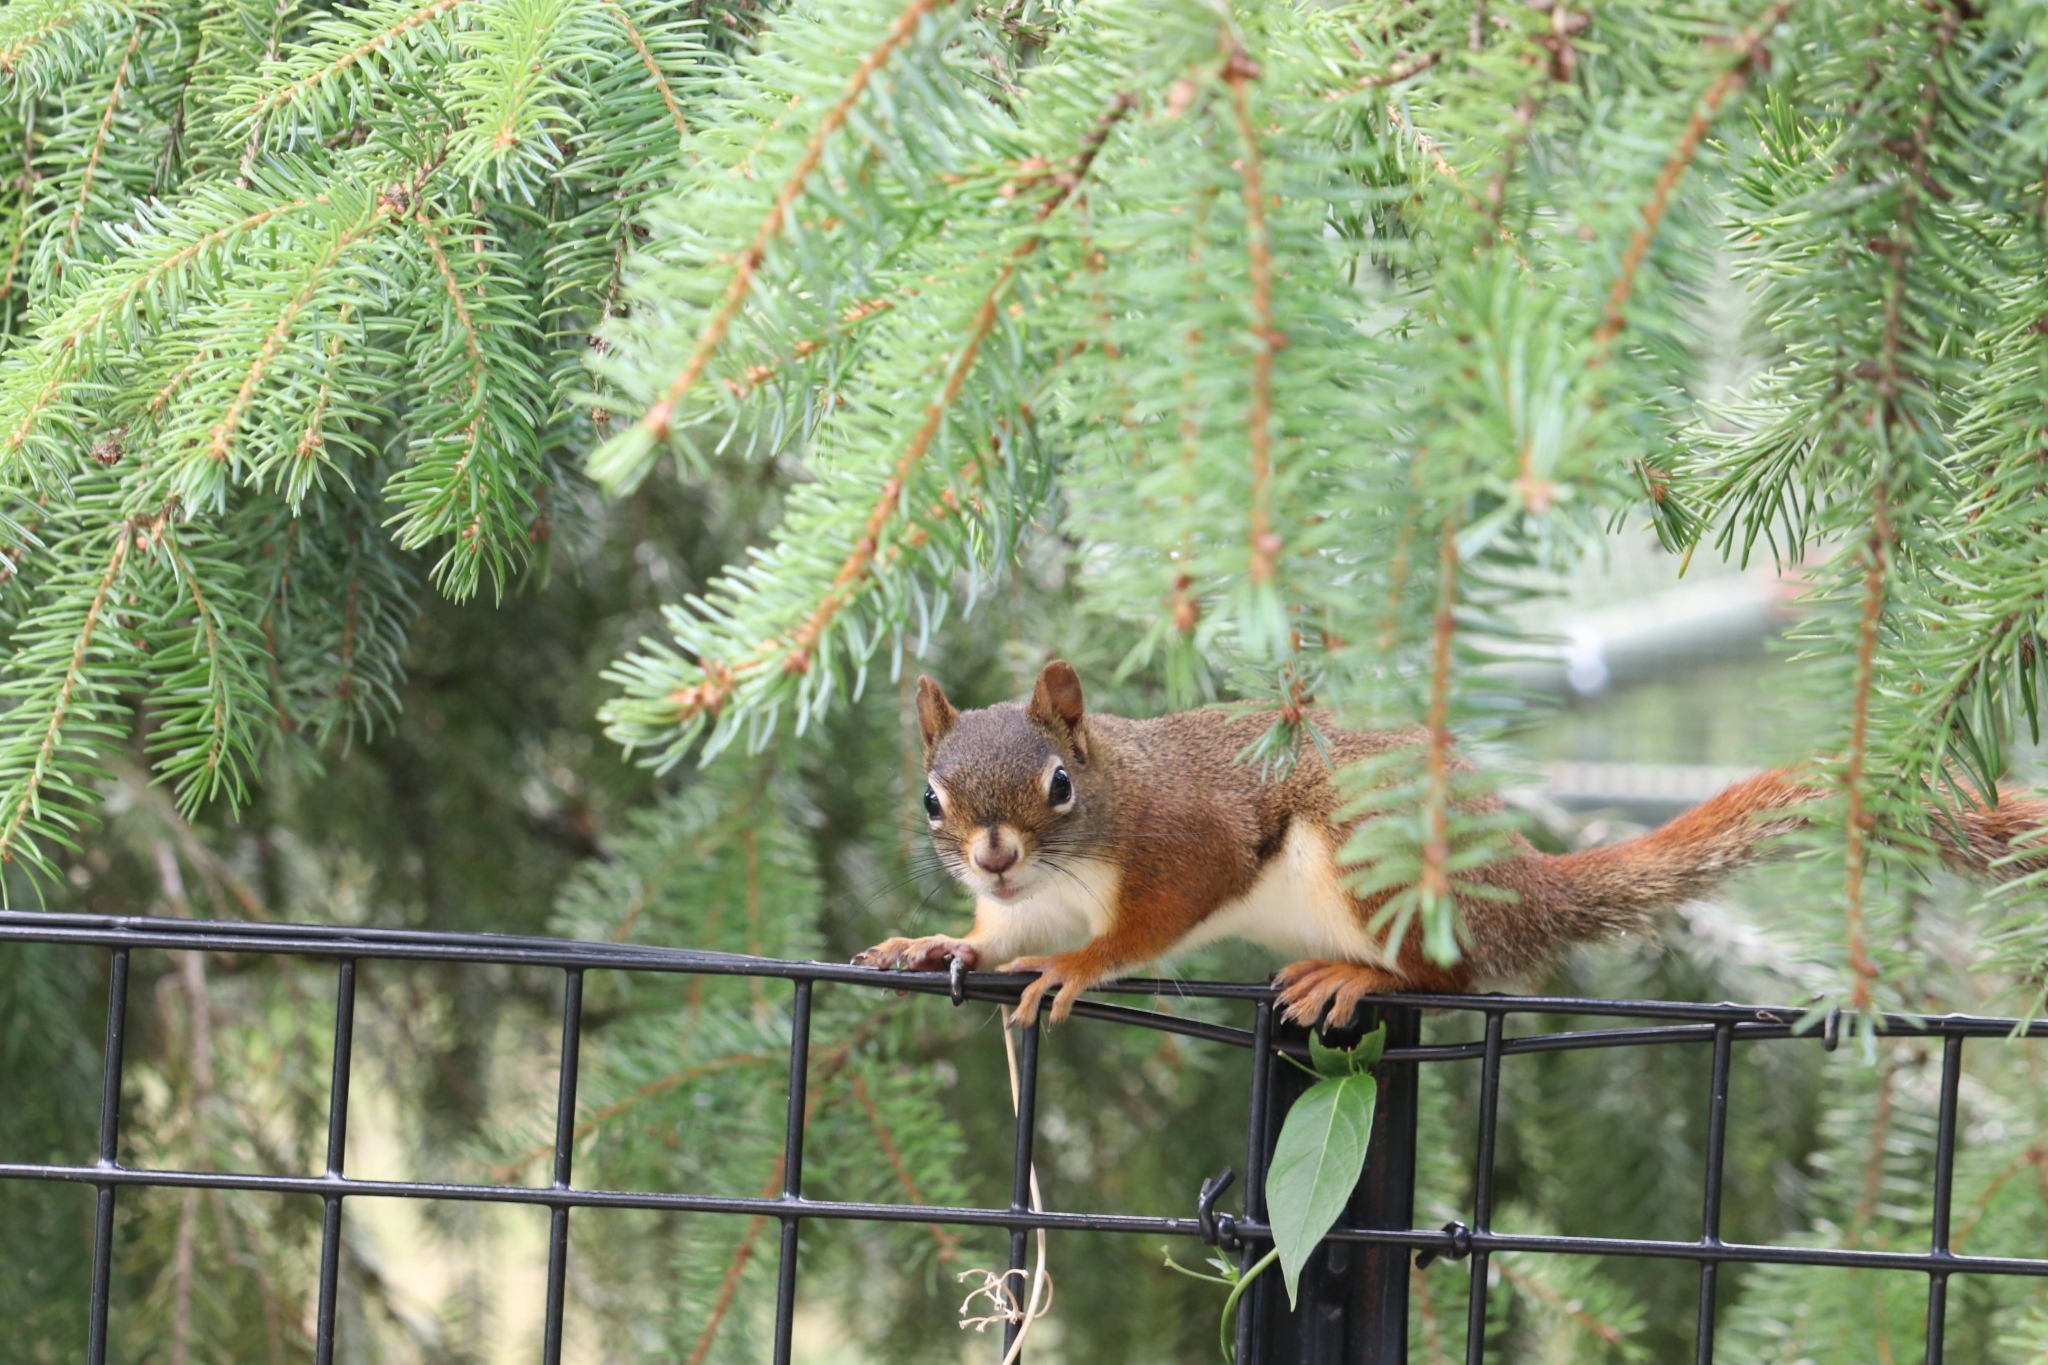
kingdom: Animalia
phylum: Chordata
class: Mammalia
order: Rodentia
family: Sciuridae
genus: Tamiasciurus
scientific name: Tamiasciurus hudsonicus
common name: Red squirrel
